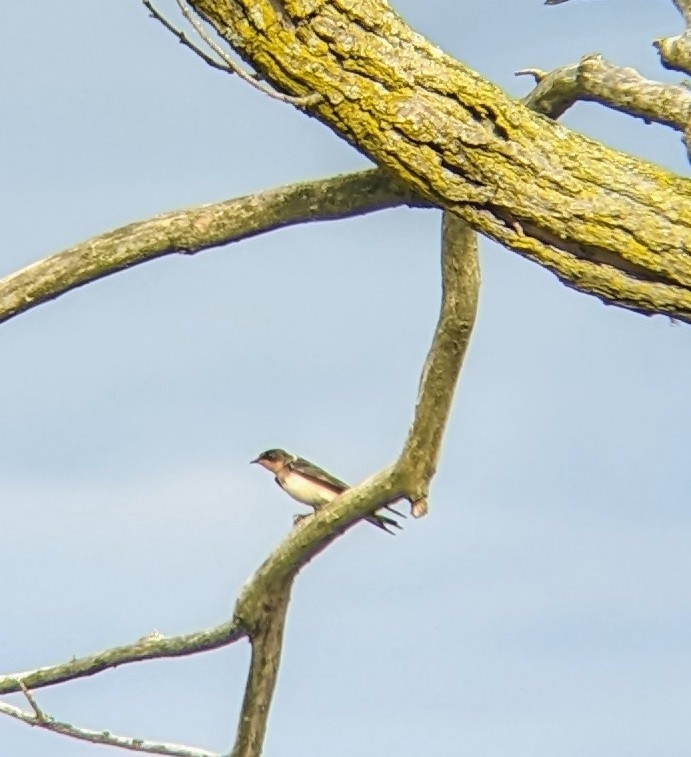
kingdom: Animalia
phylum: Chordata
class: Aves
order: Passeriformes
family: Hirundinidae
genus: Hirundo
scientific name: Hirundo rustica
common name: Barn swallow
